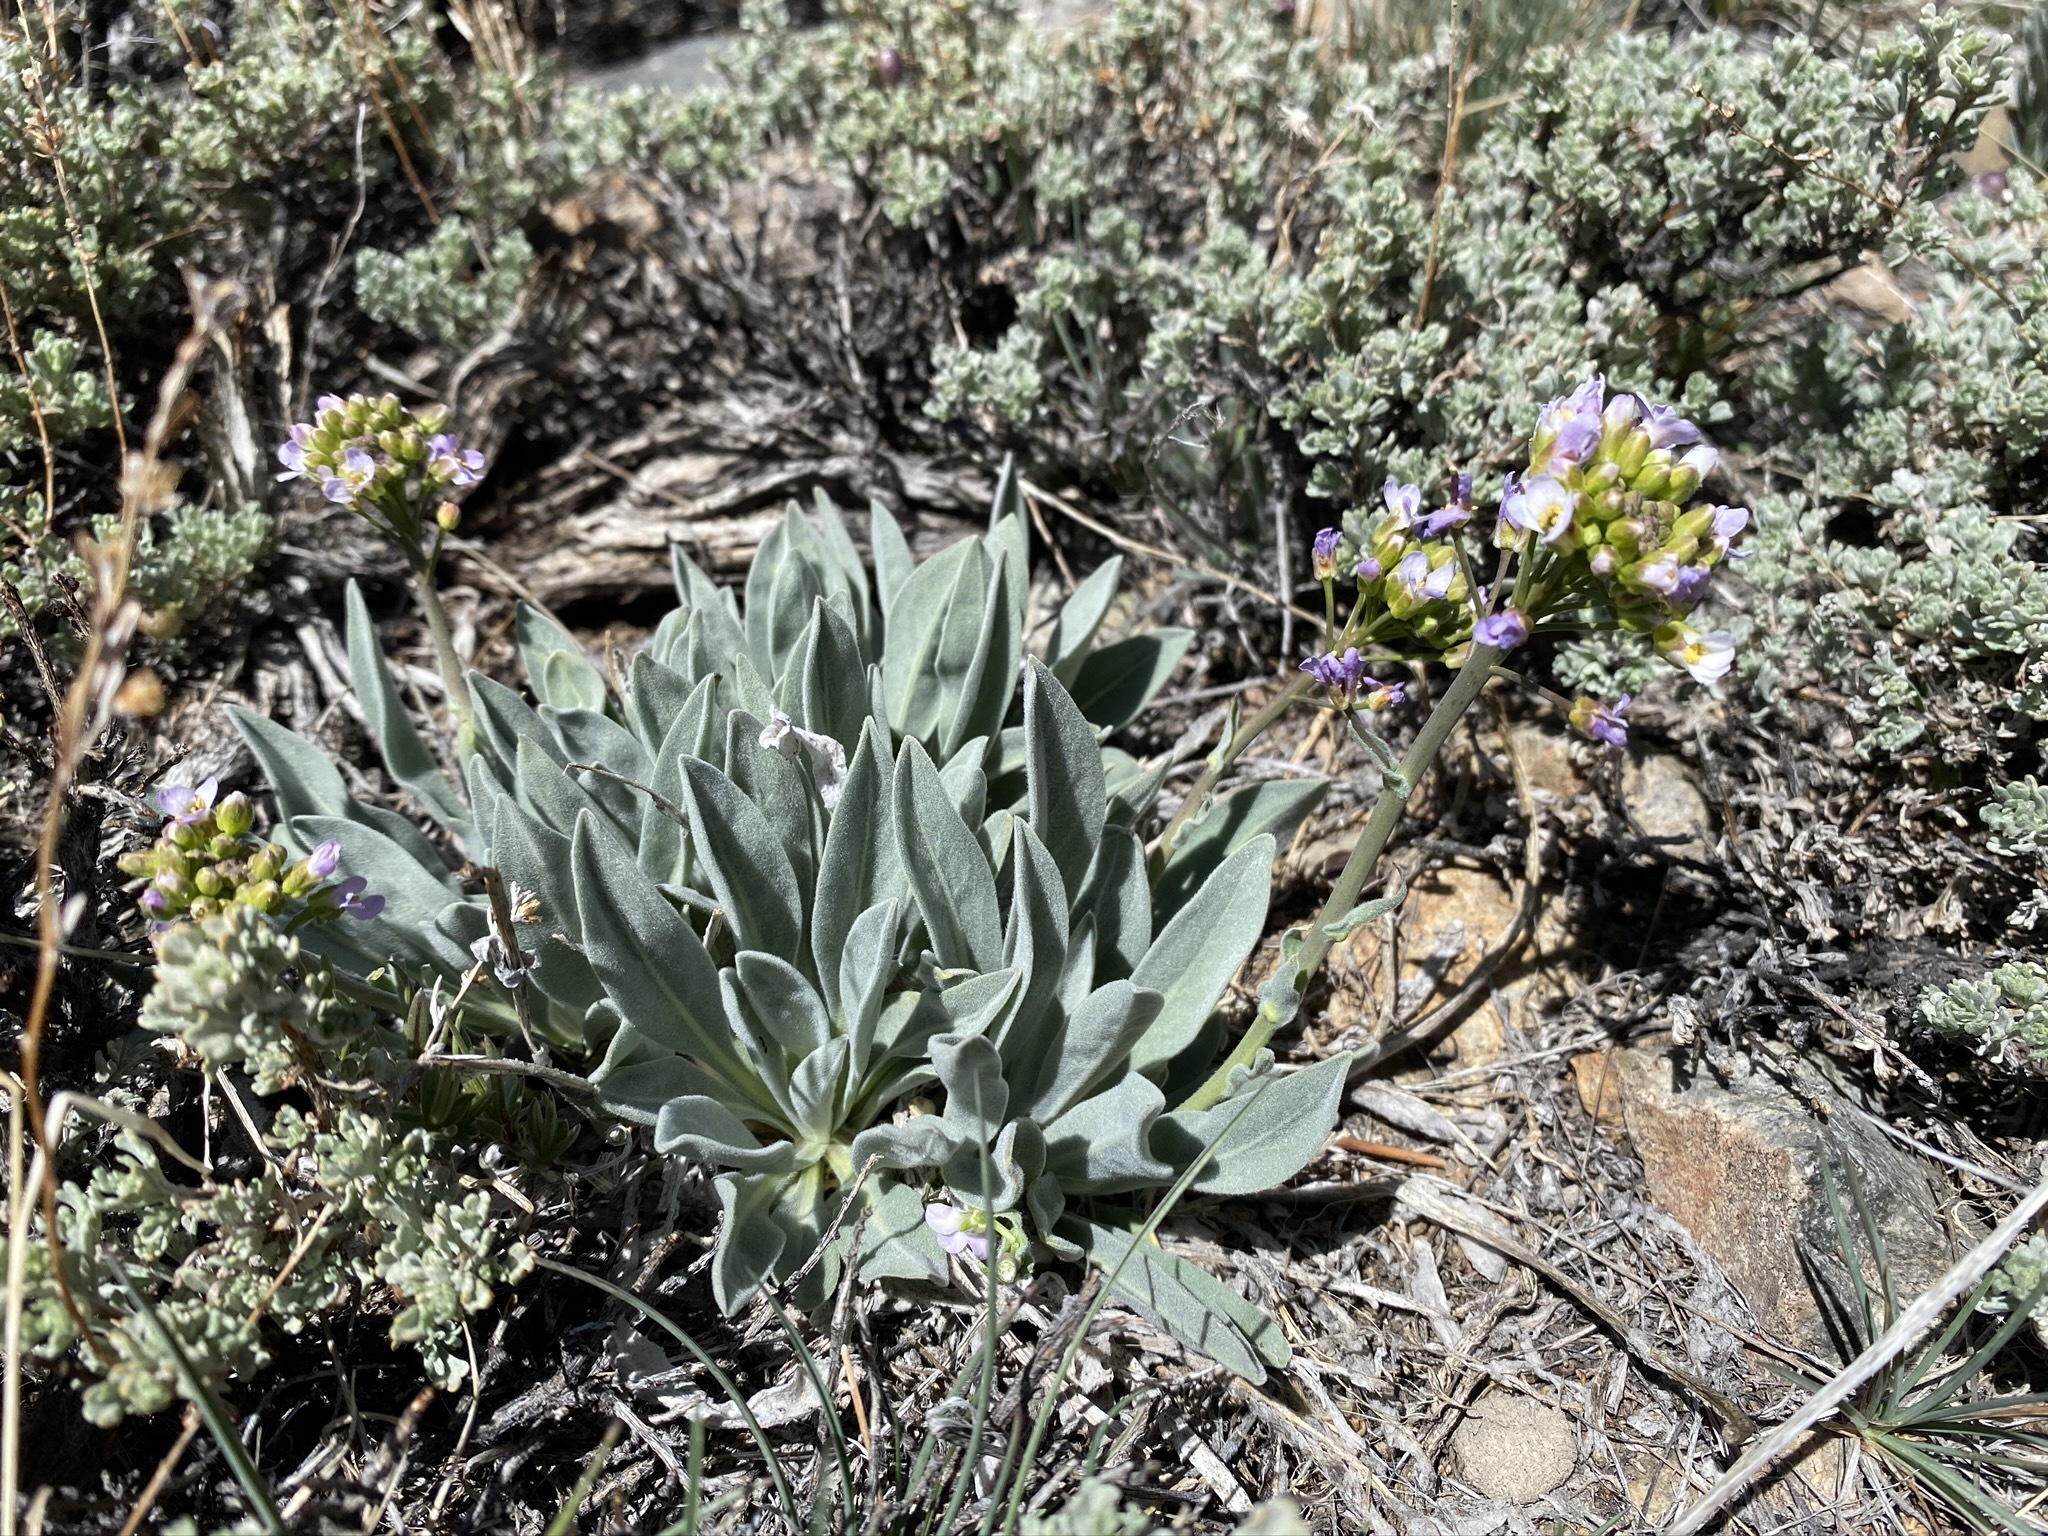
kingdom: Plantae
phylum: Tracheophyta
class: Magnoliopsida
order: Brassicales
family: Brassicaceae
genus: Phoenicaulis
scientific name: Phoenicaulis cheiranthoides
